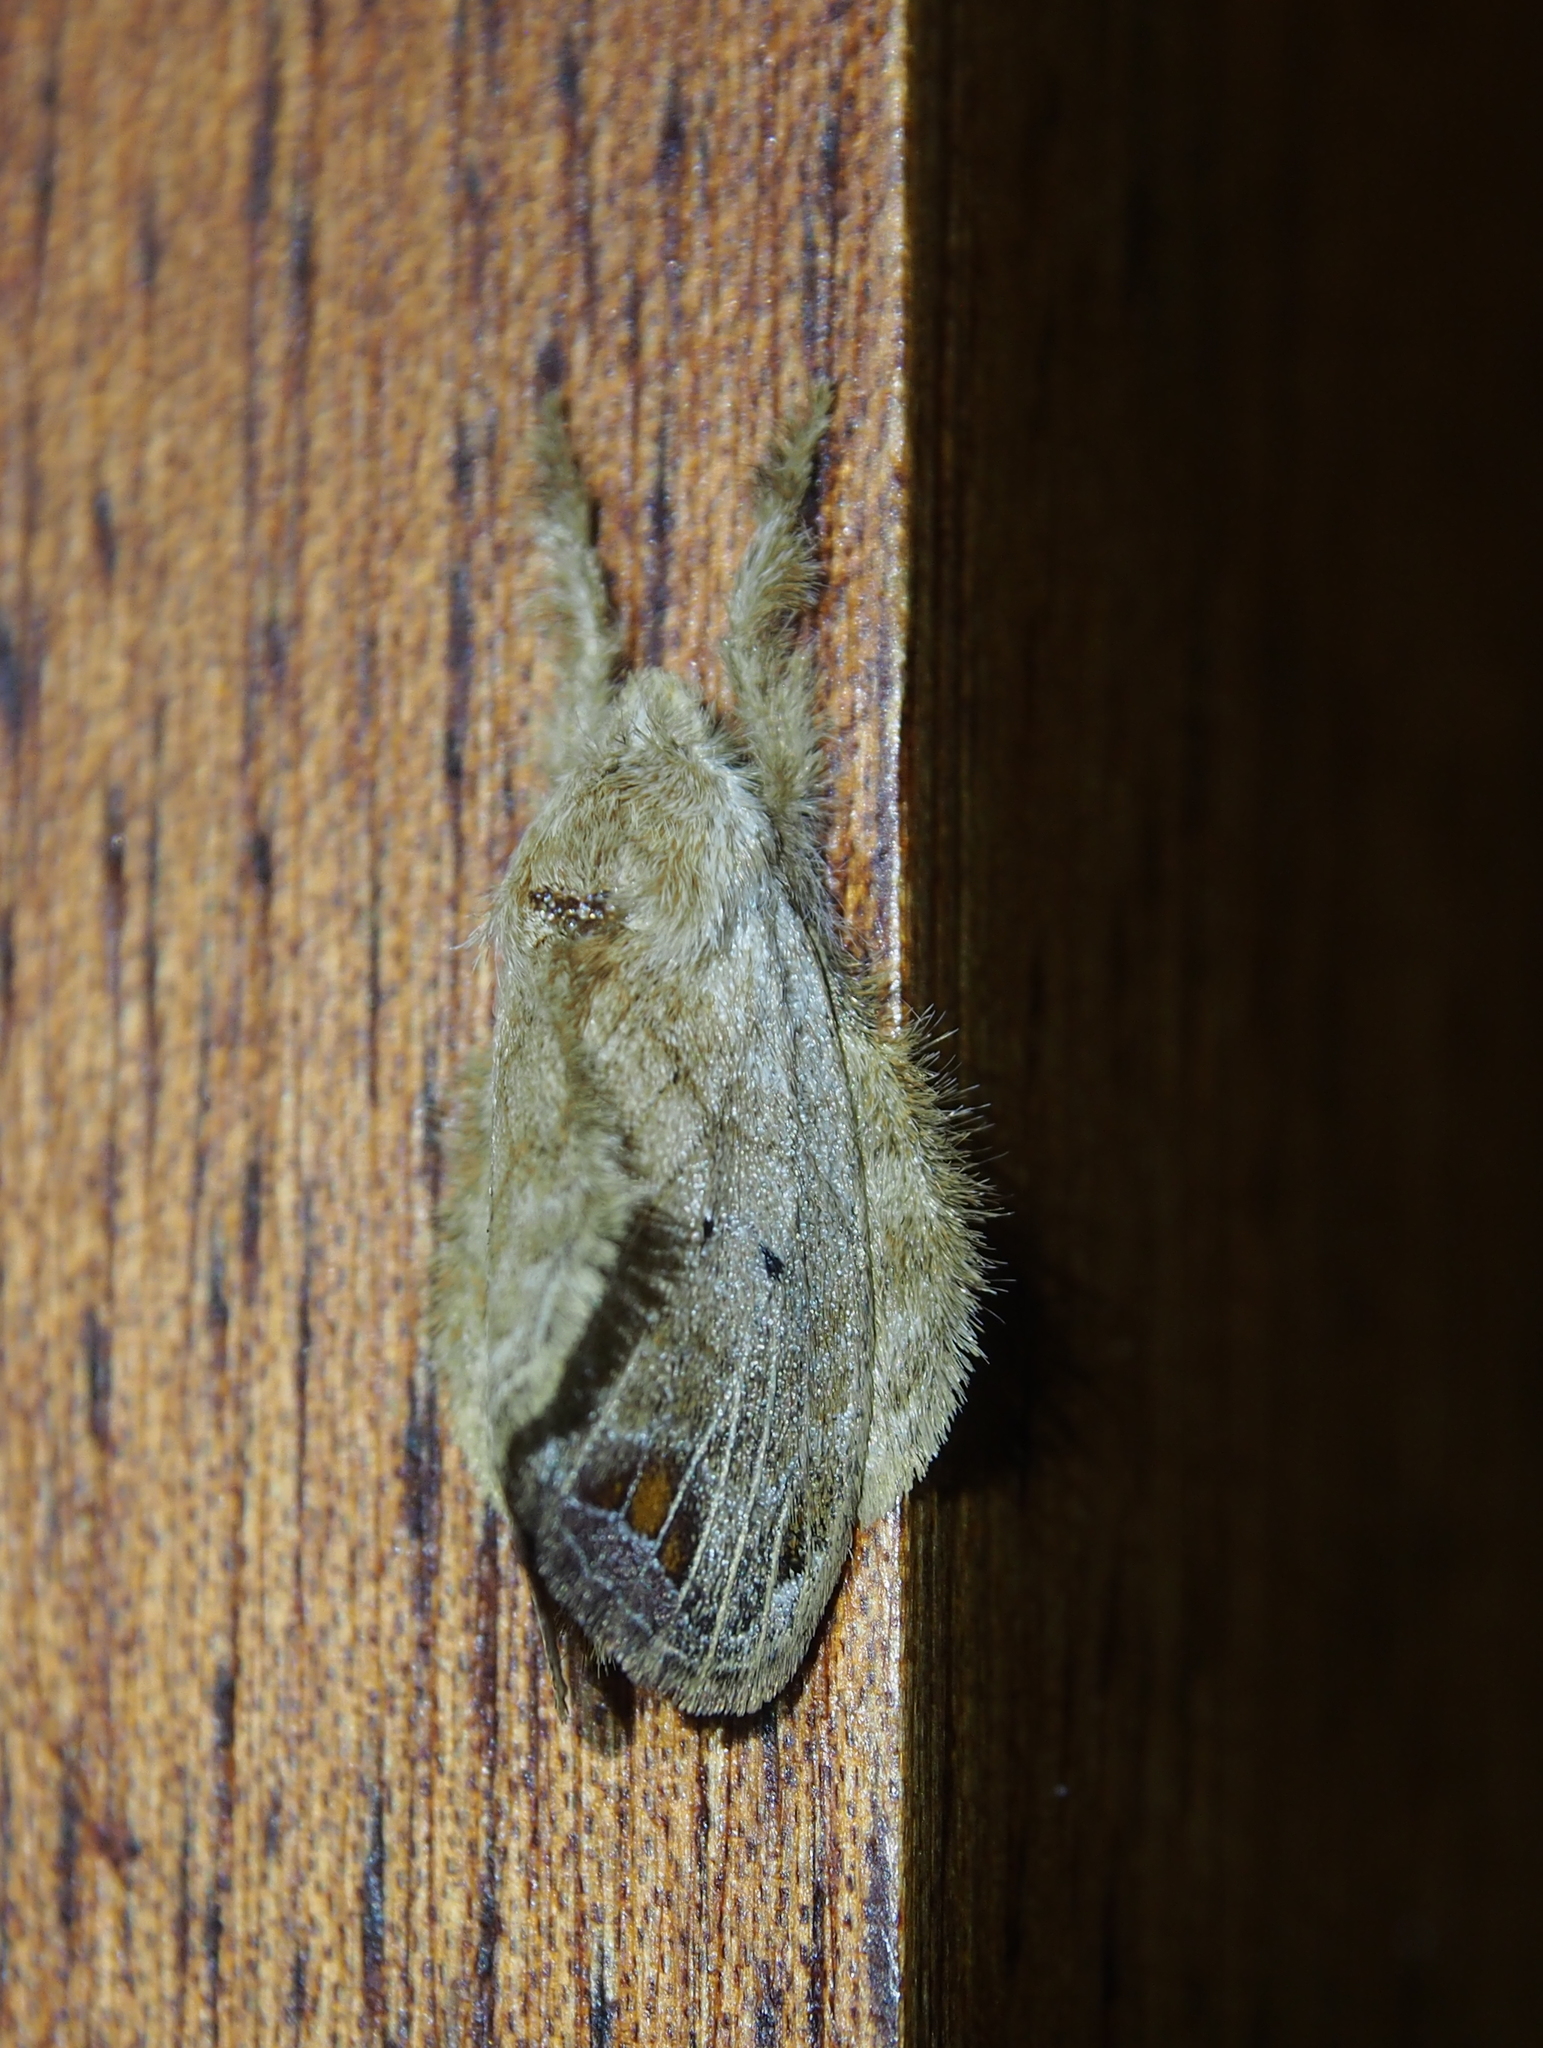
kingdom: Animalia
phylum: Arthropoda
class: Insecta
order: Lepidoptera
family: Lasiocampidae
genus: Nesara
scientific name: Nesara caramina
